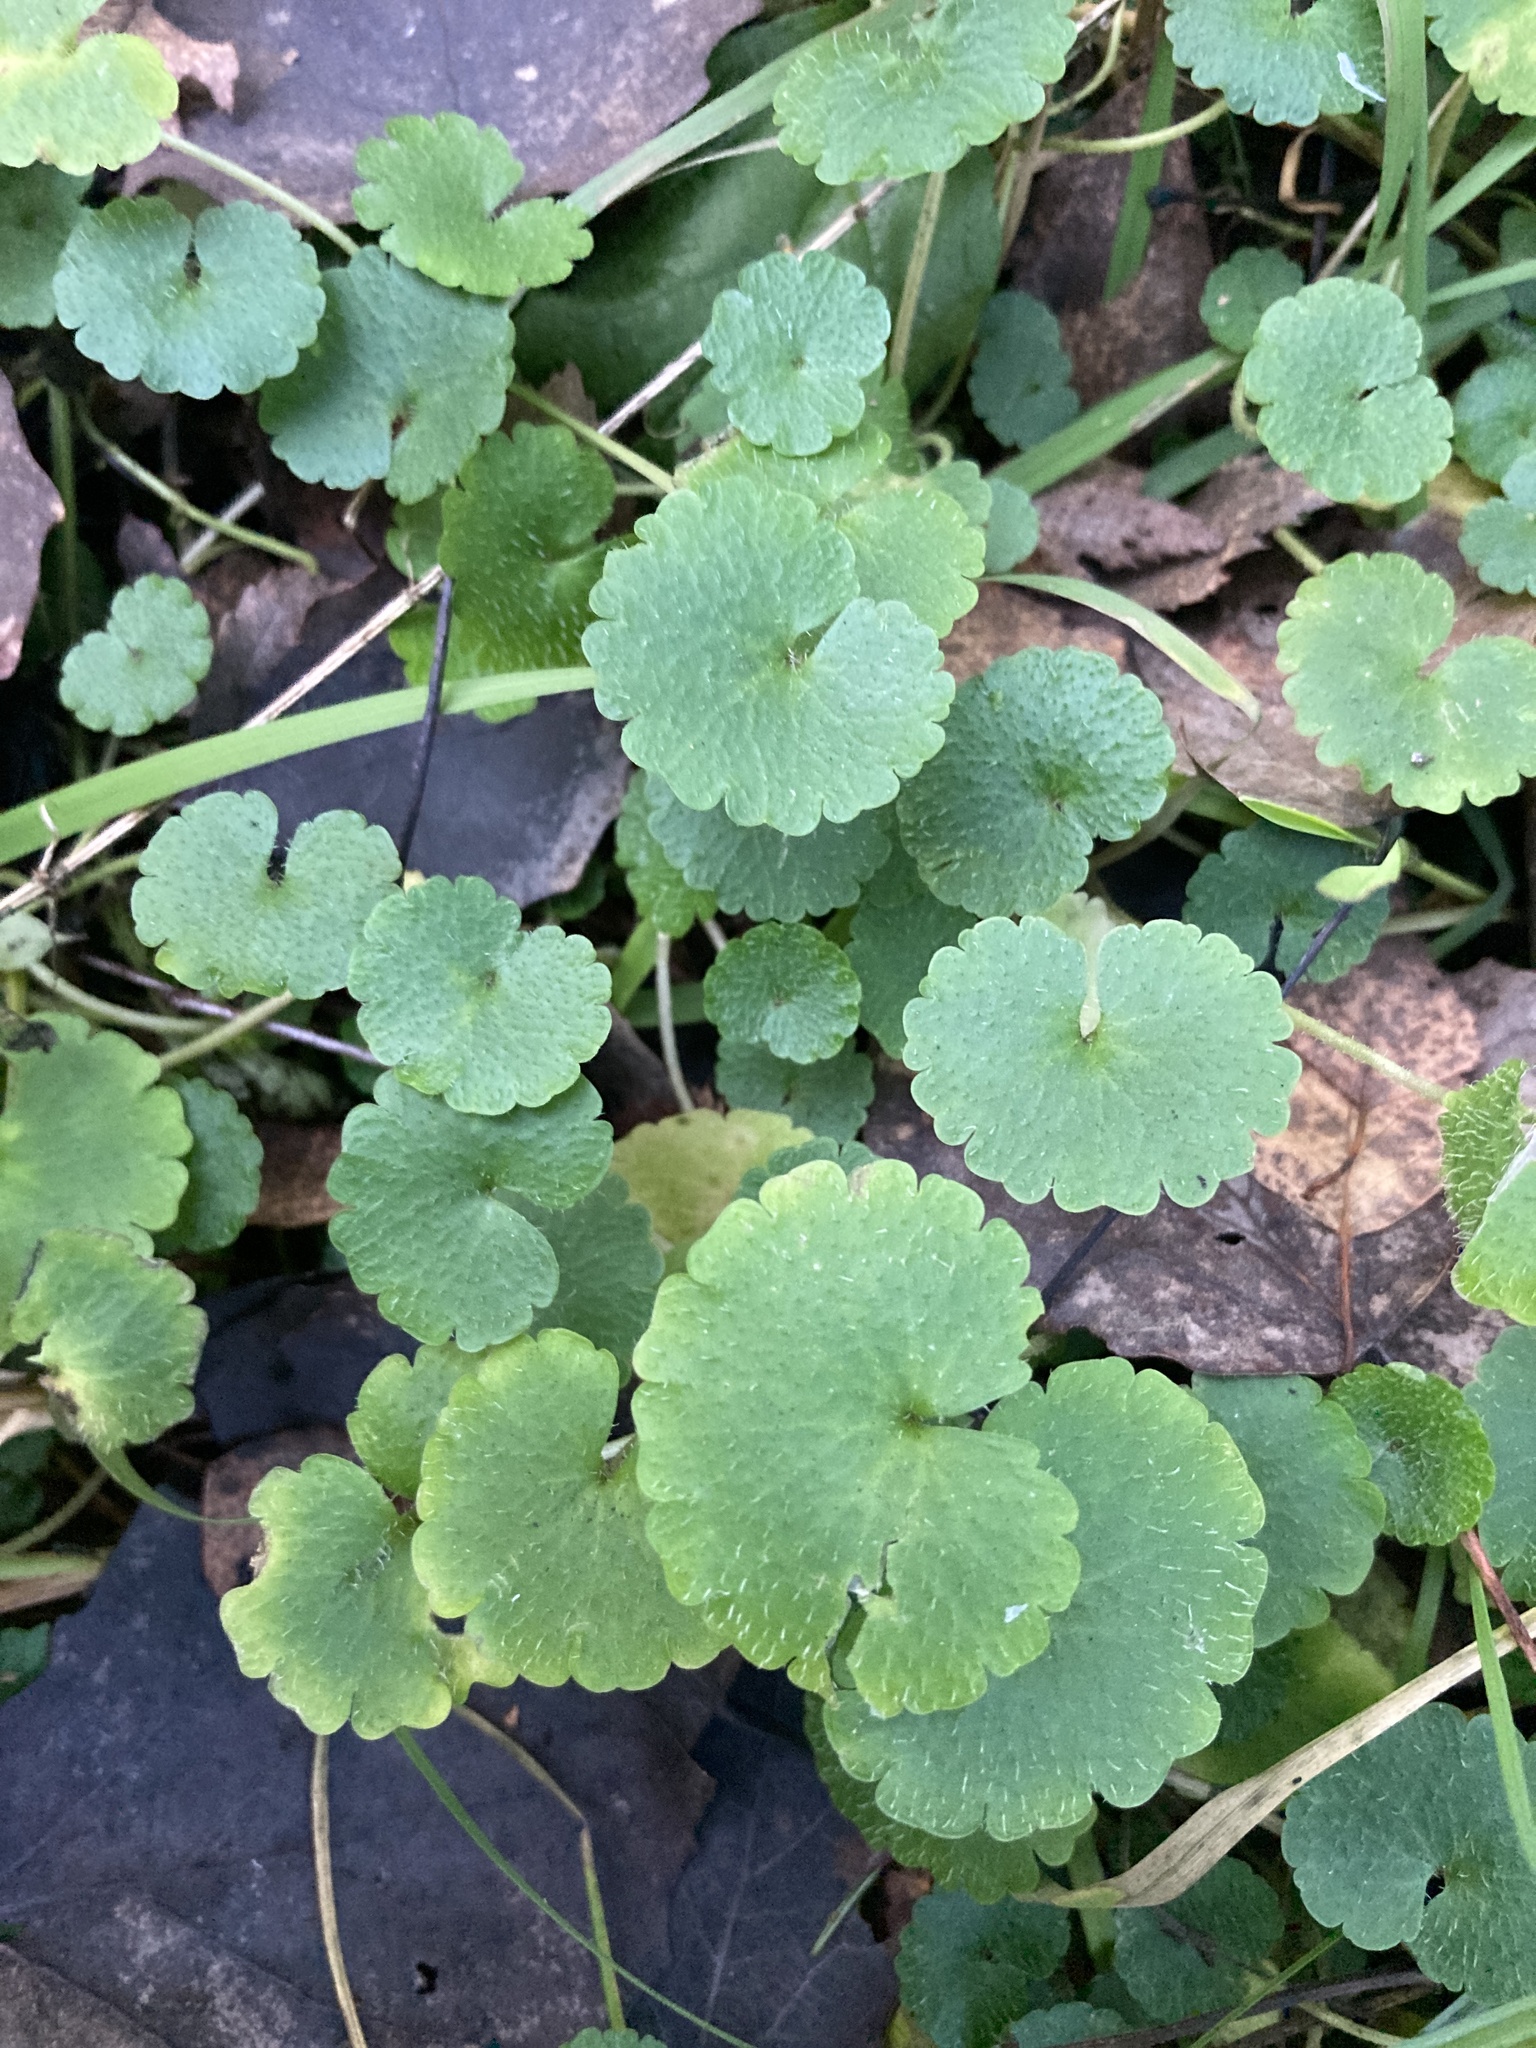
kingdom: Plantae
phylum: Tracheophyta
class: Magnoliopsida
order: Saxifragales
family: Saxifragaceae
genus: Chrysosplenium
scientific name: Chrysosplenium alternifolium
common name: Alternate-leaved golden-saxifrage
